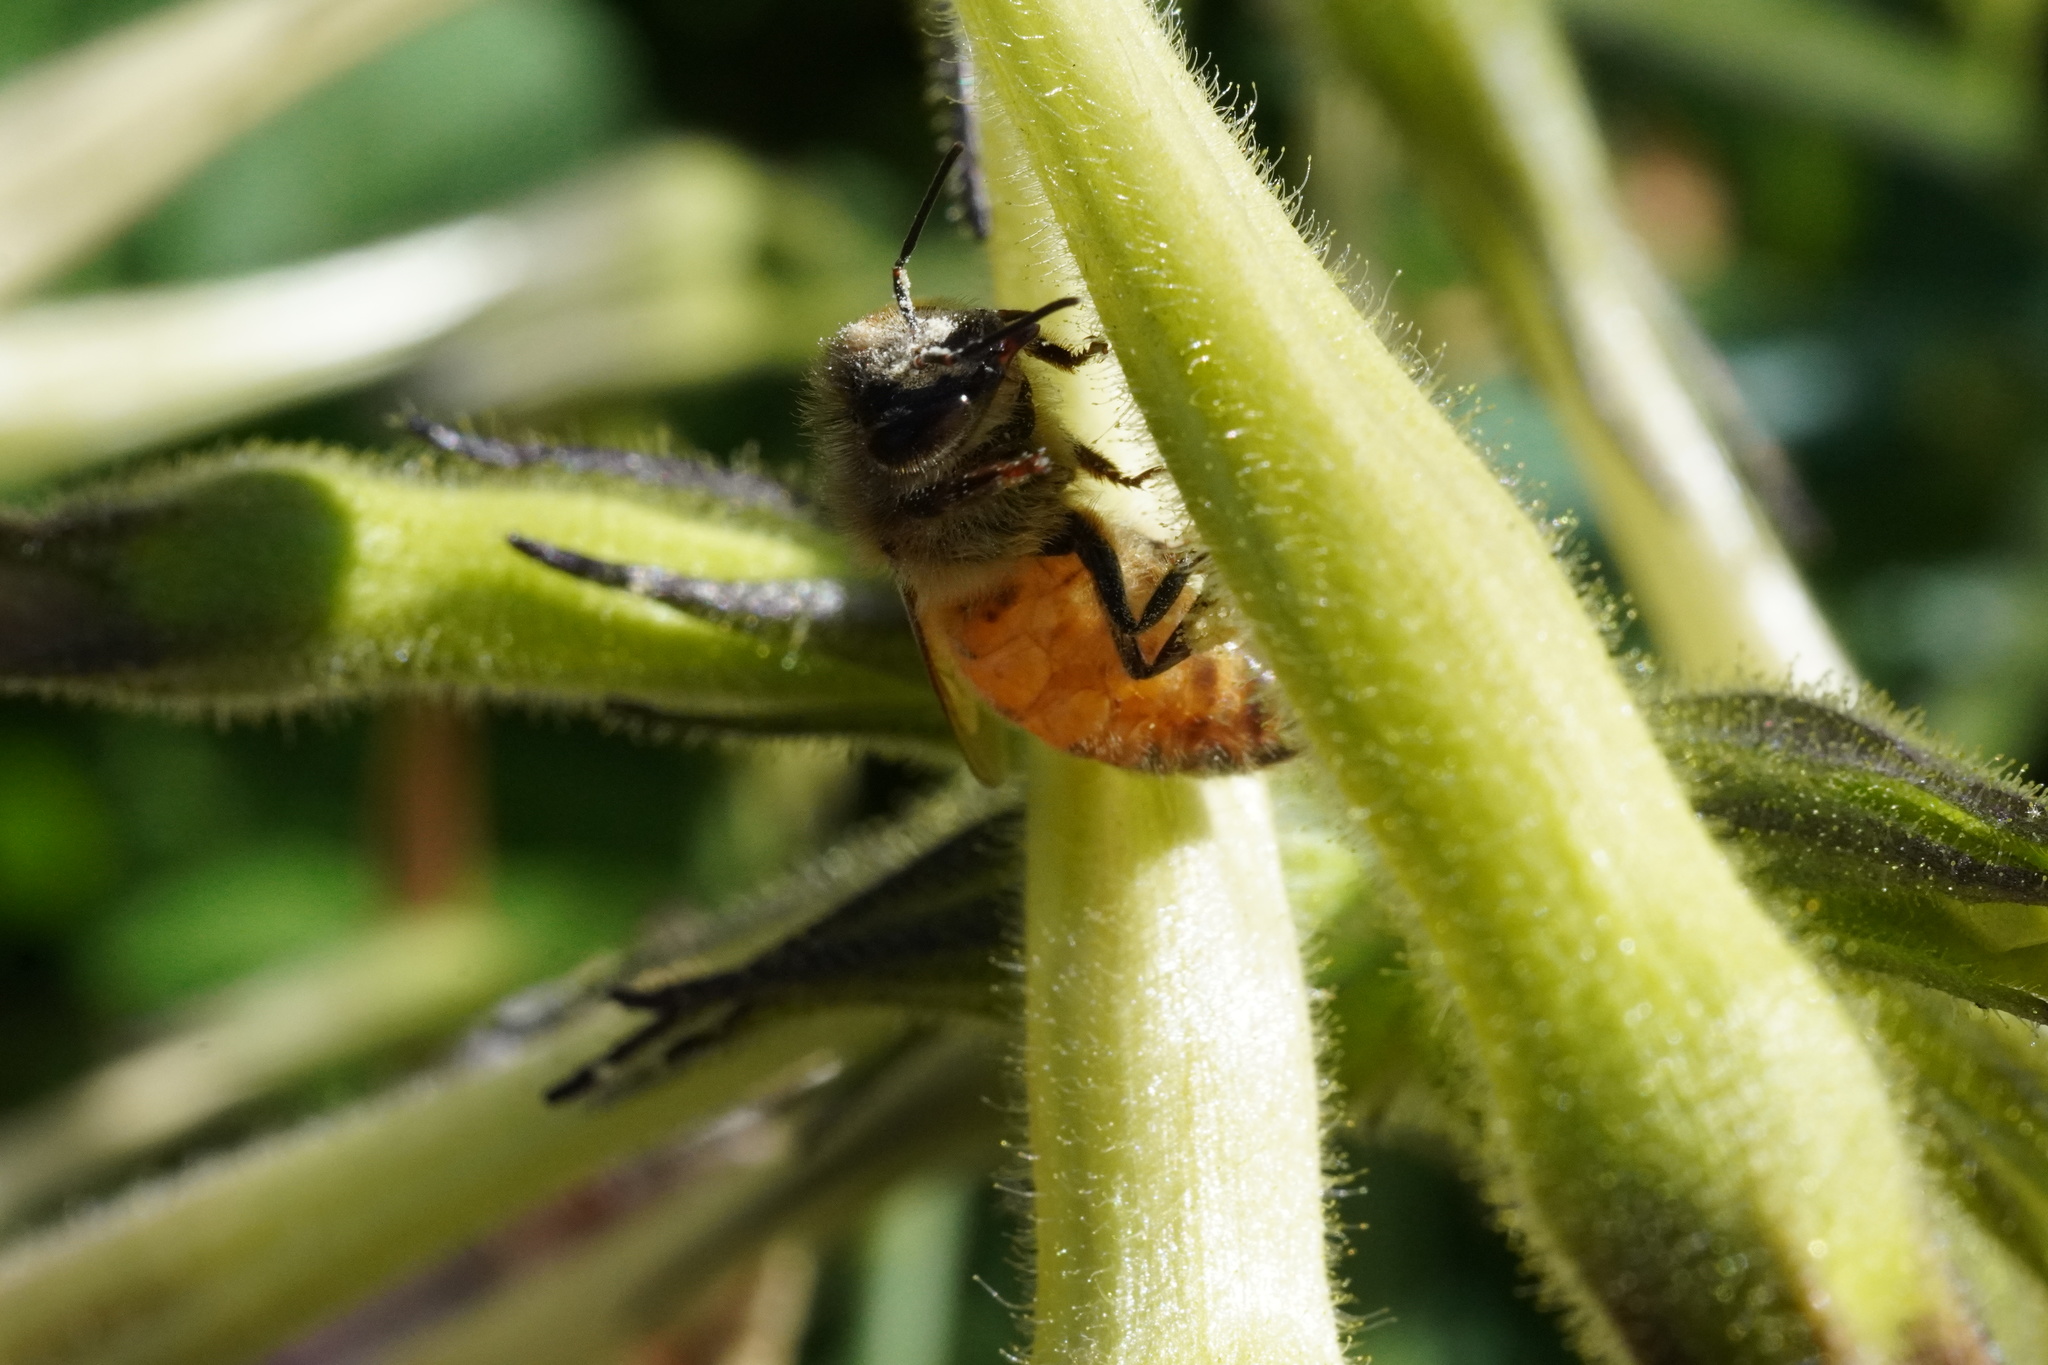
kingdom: Animalia
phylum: Arthropoda
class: Insecta
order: Hymenoptera
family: Apidae
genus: Apis
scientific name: Apis mellifera
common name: Honey bee
